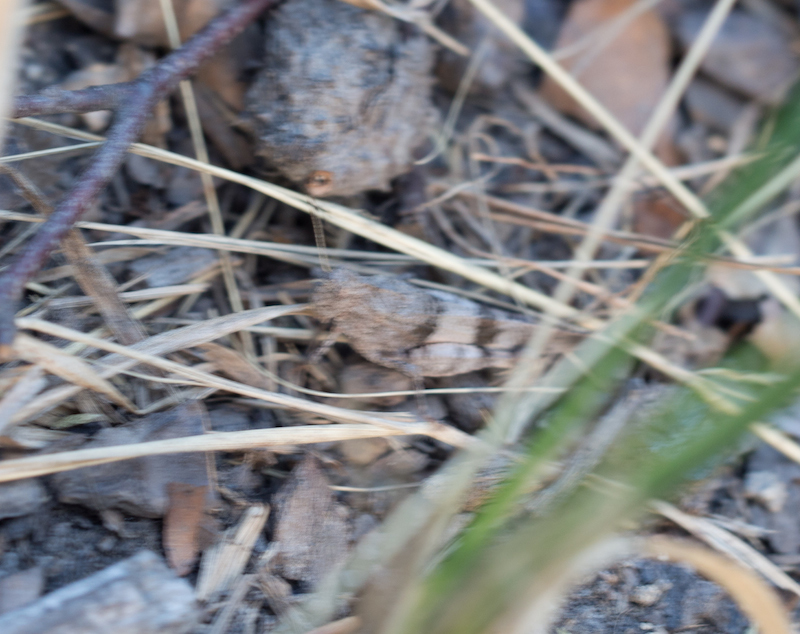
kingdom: Animalia
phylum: Arthropoda
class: Insecta
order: Orthoptera
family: Acrididae
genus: Oedipoda
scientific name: Oedipoda caerulescens
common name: Blue-winged grasshopper
